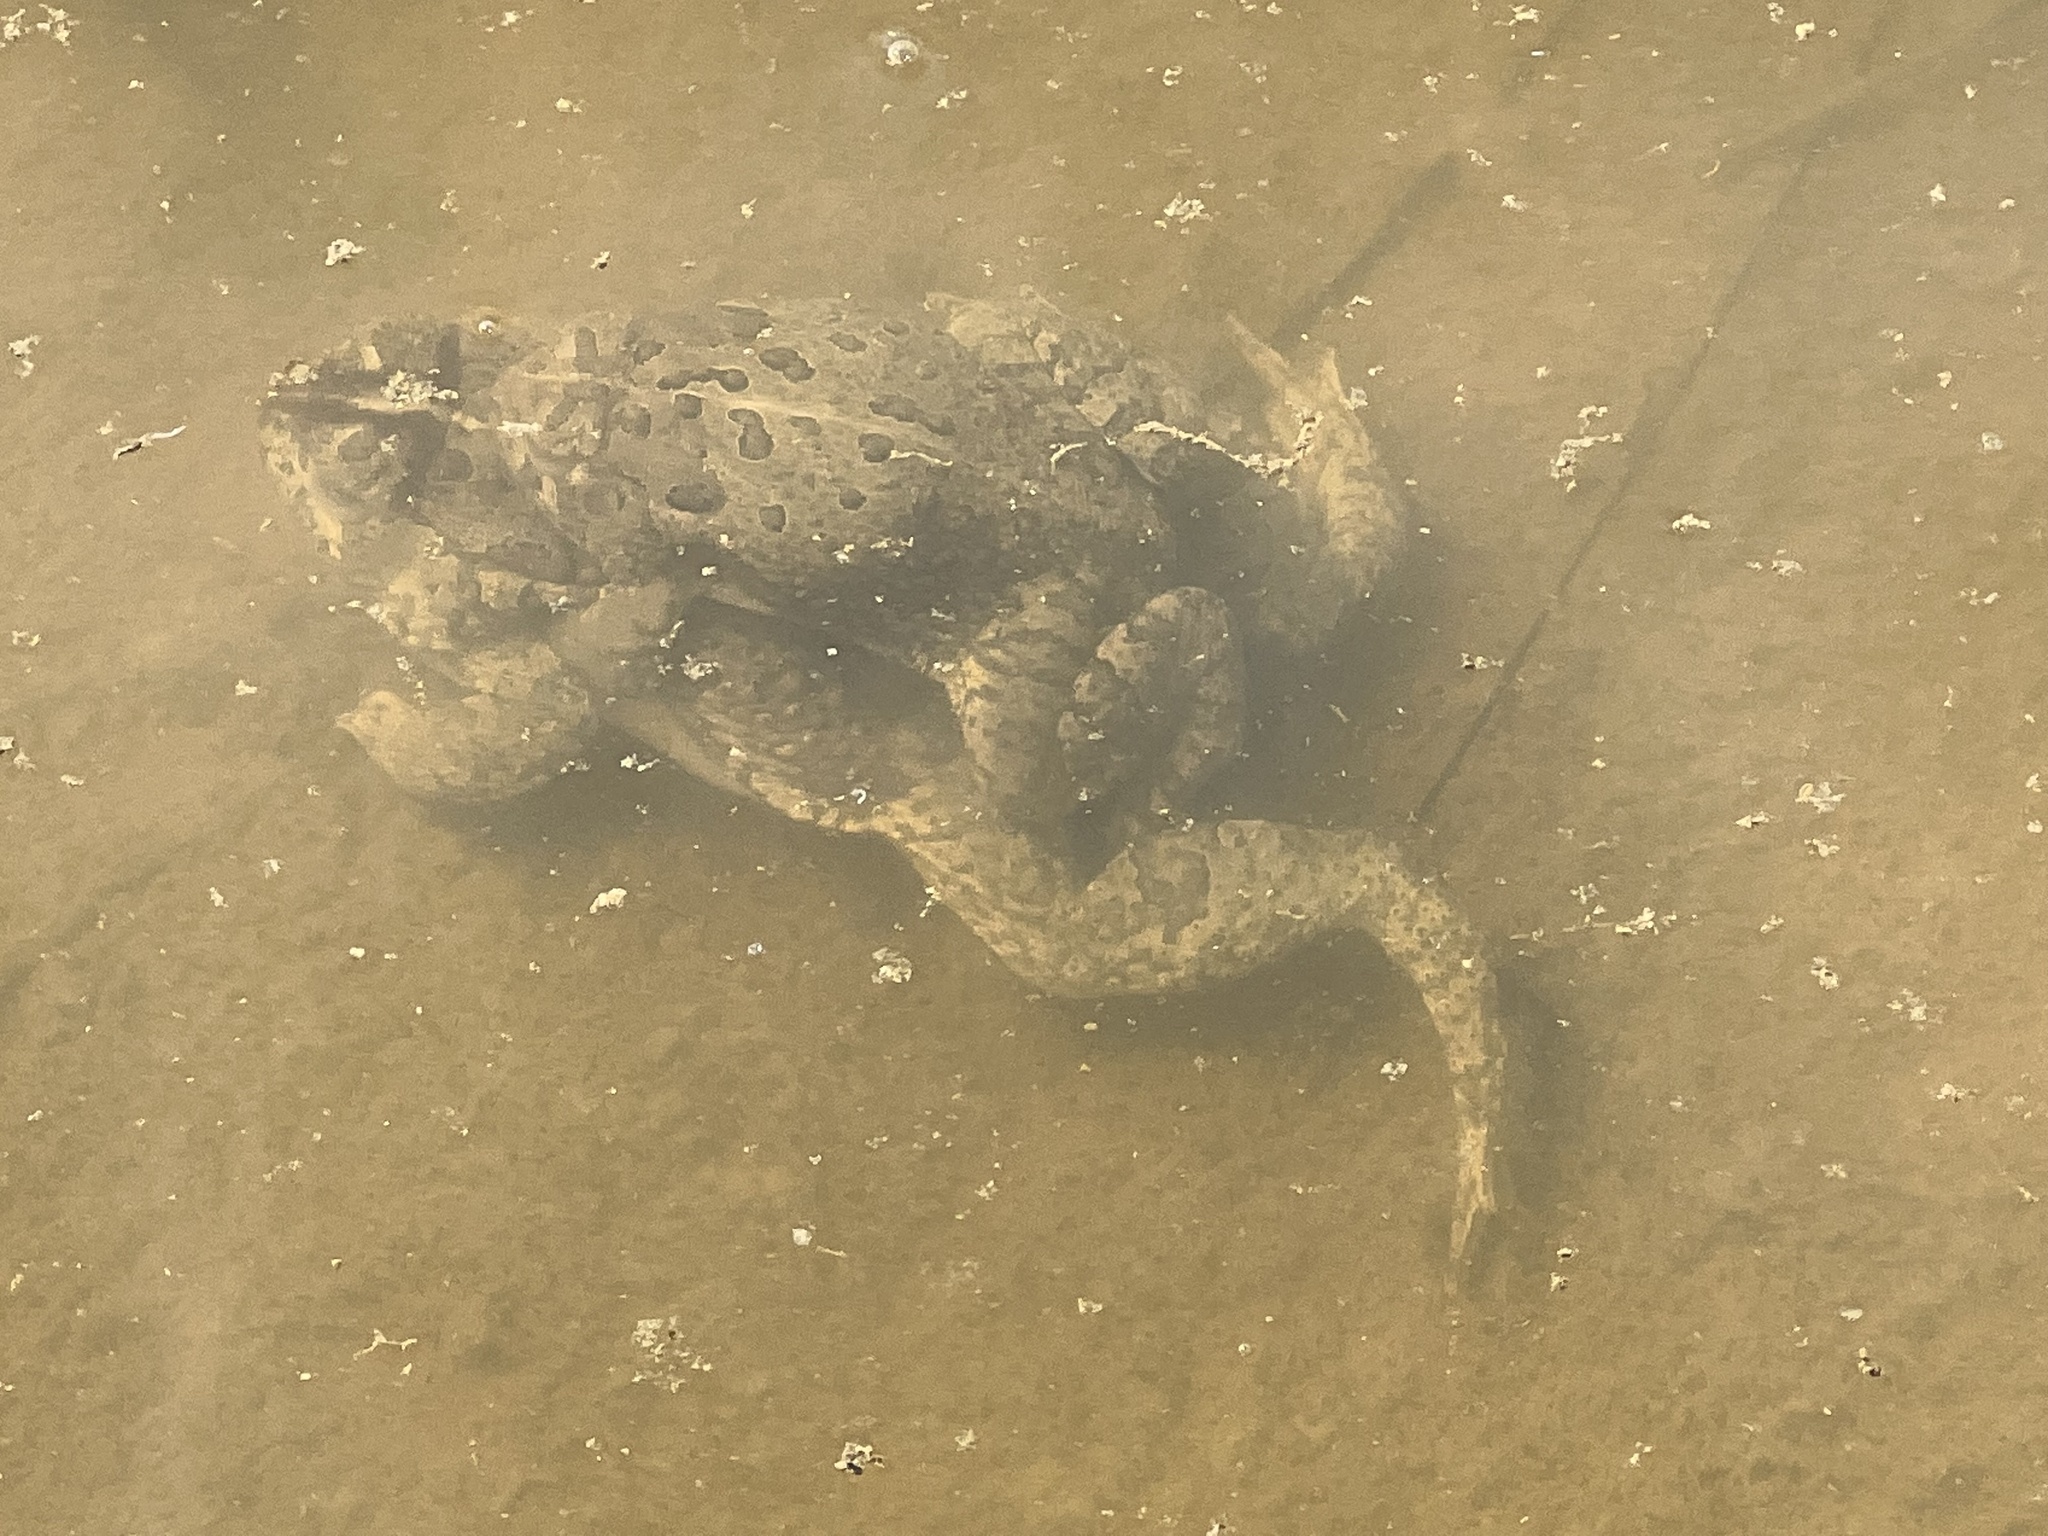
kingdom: Animalia
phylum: Chordata
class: Amphibia
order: Anura
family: Bufonidae
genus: Anaxyrus
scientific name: Anaxyrus woodhousii
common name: Woodhouse's toad
